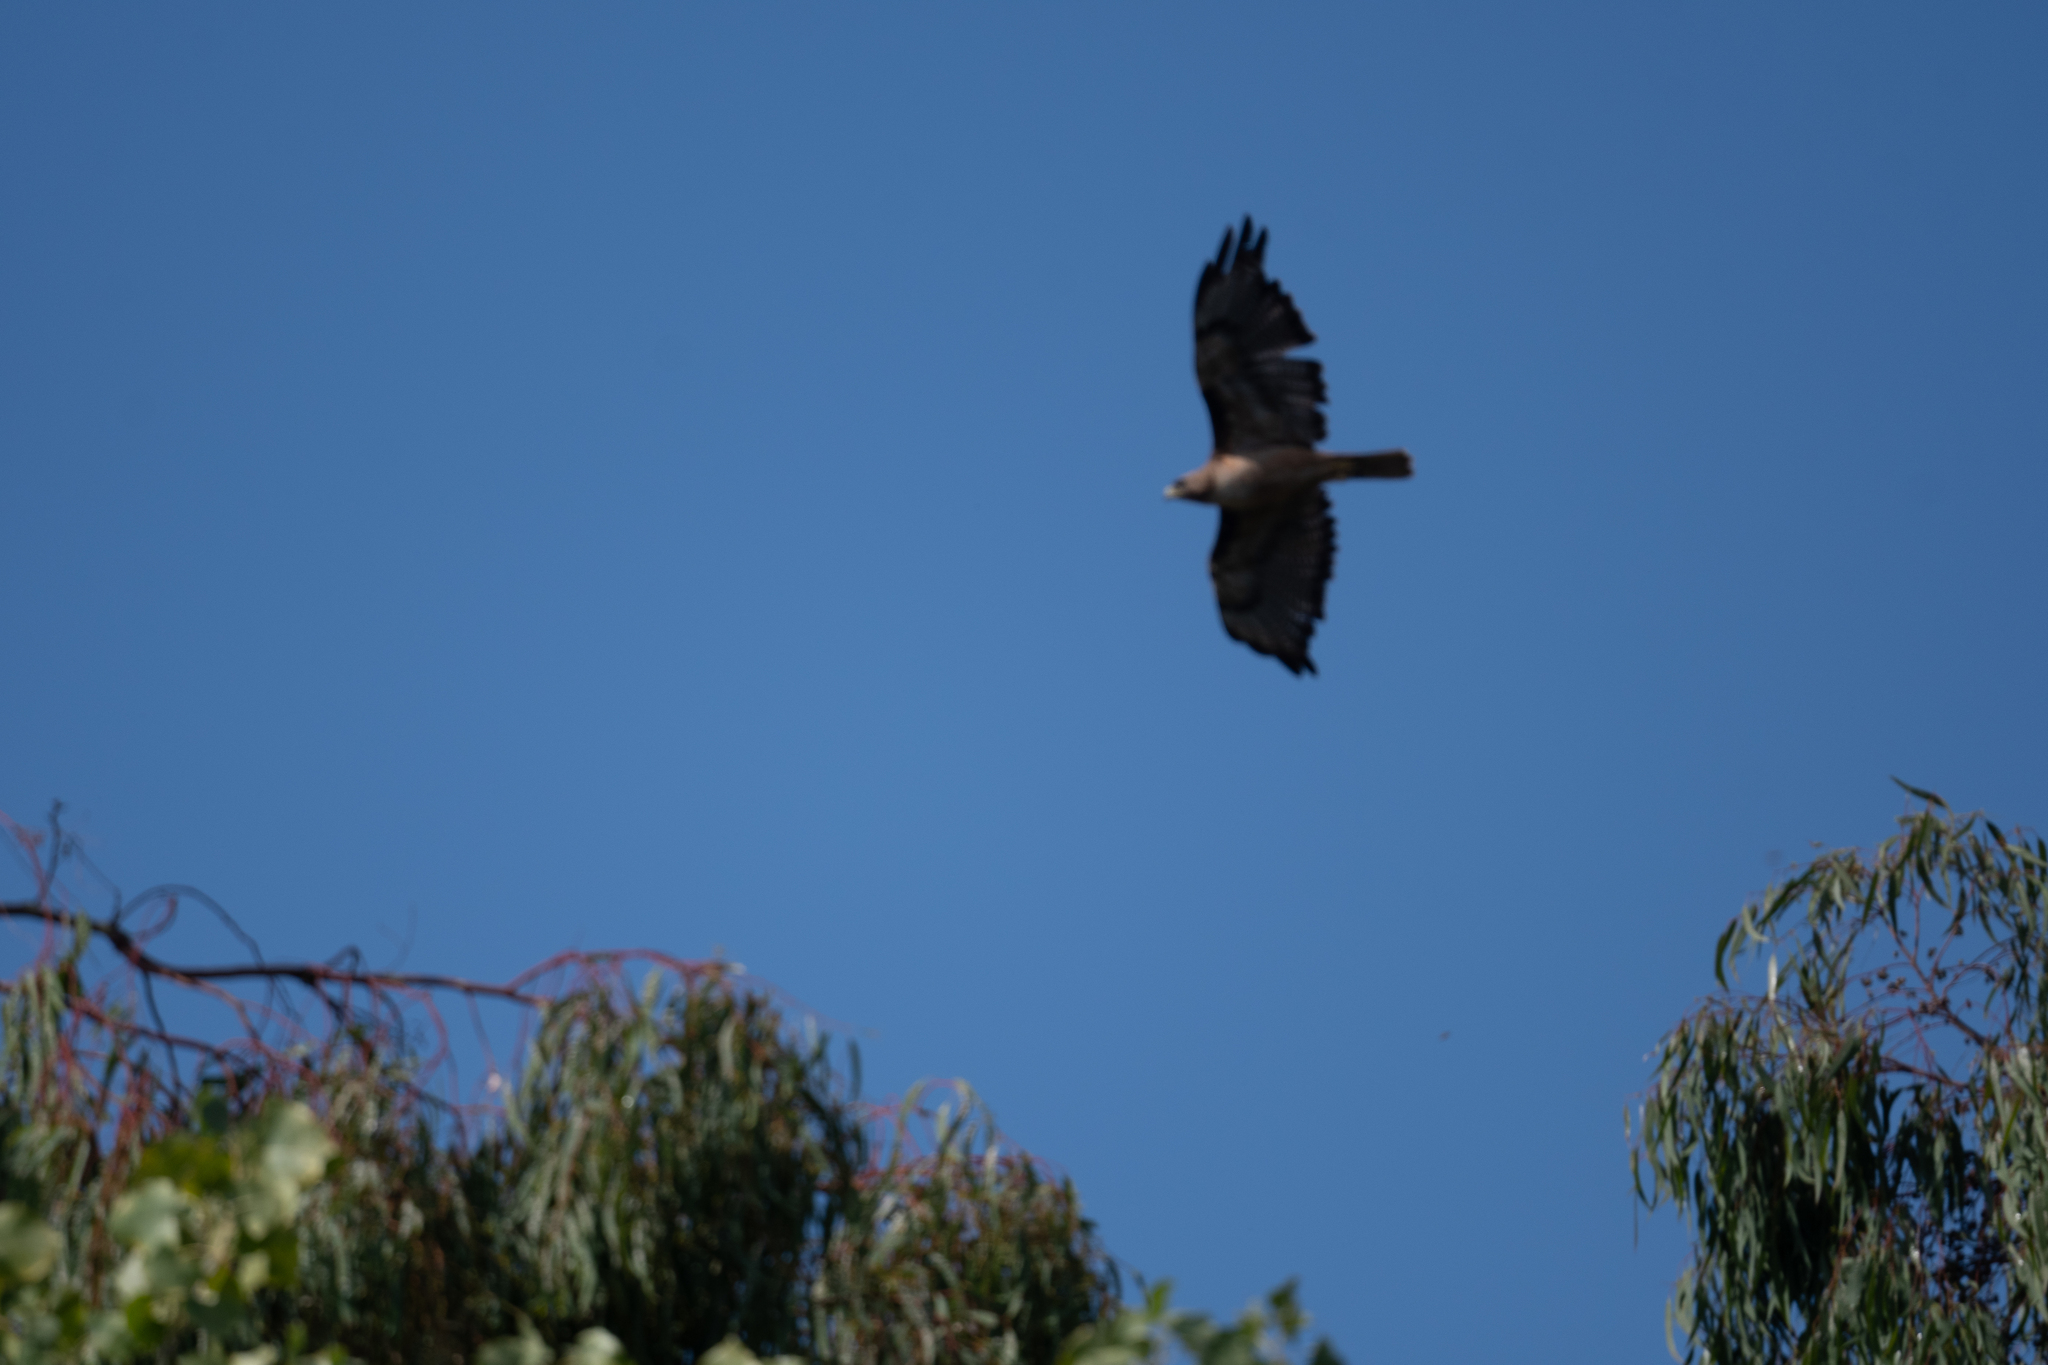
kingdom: Animalia
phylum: Chordata
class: Aves
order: Accipitriformes
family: Accipitridae
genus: Buteo
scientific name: Buteo jamaicensis
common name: Red-tailed hawk
